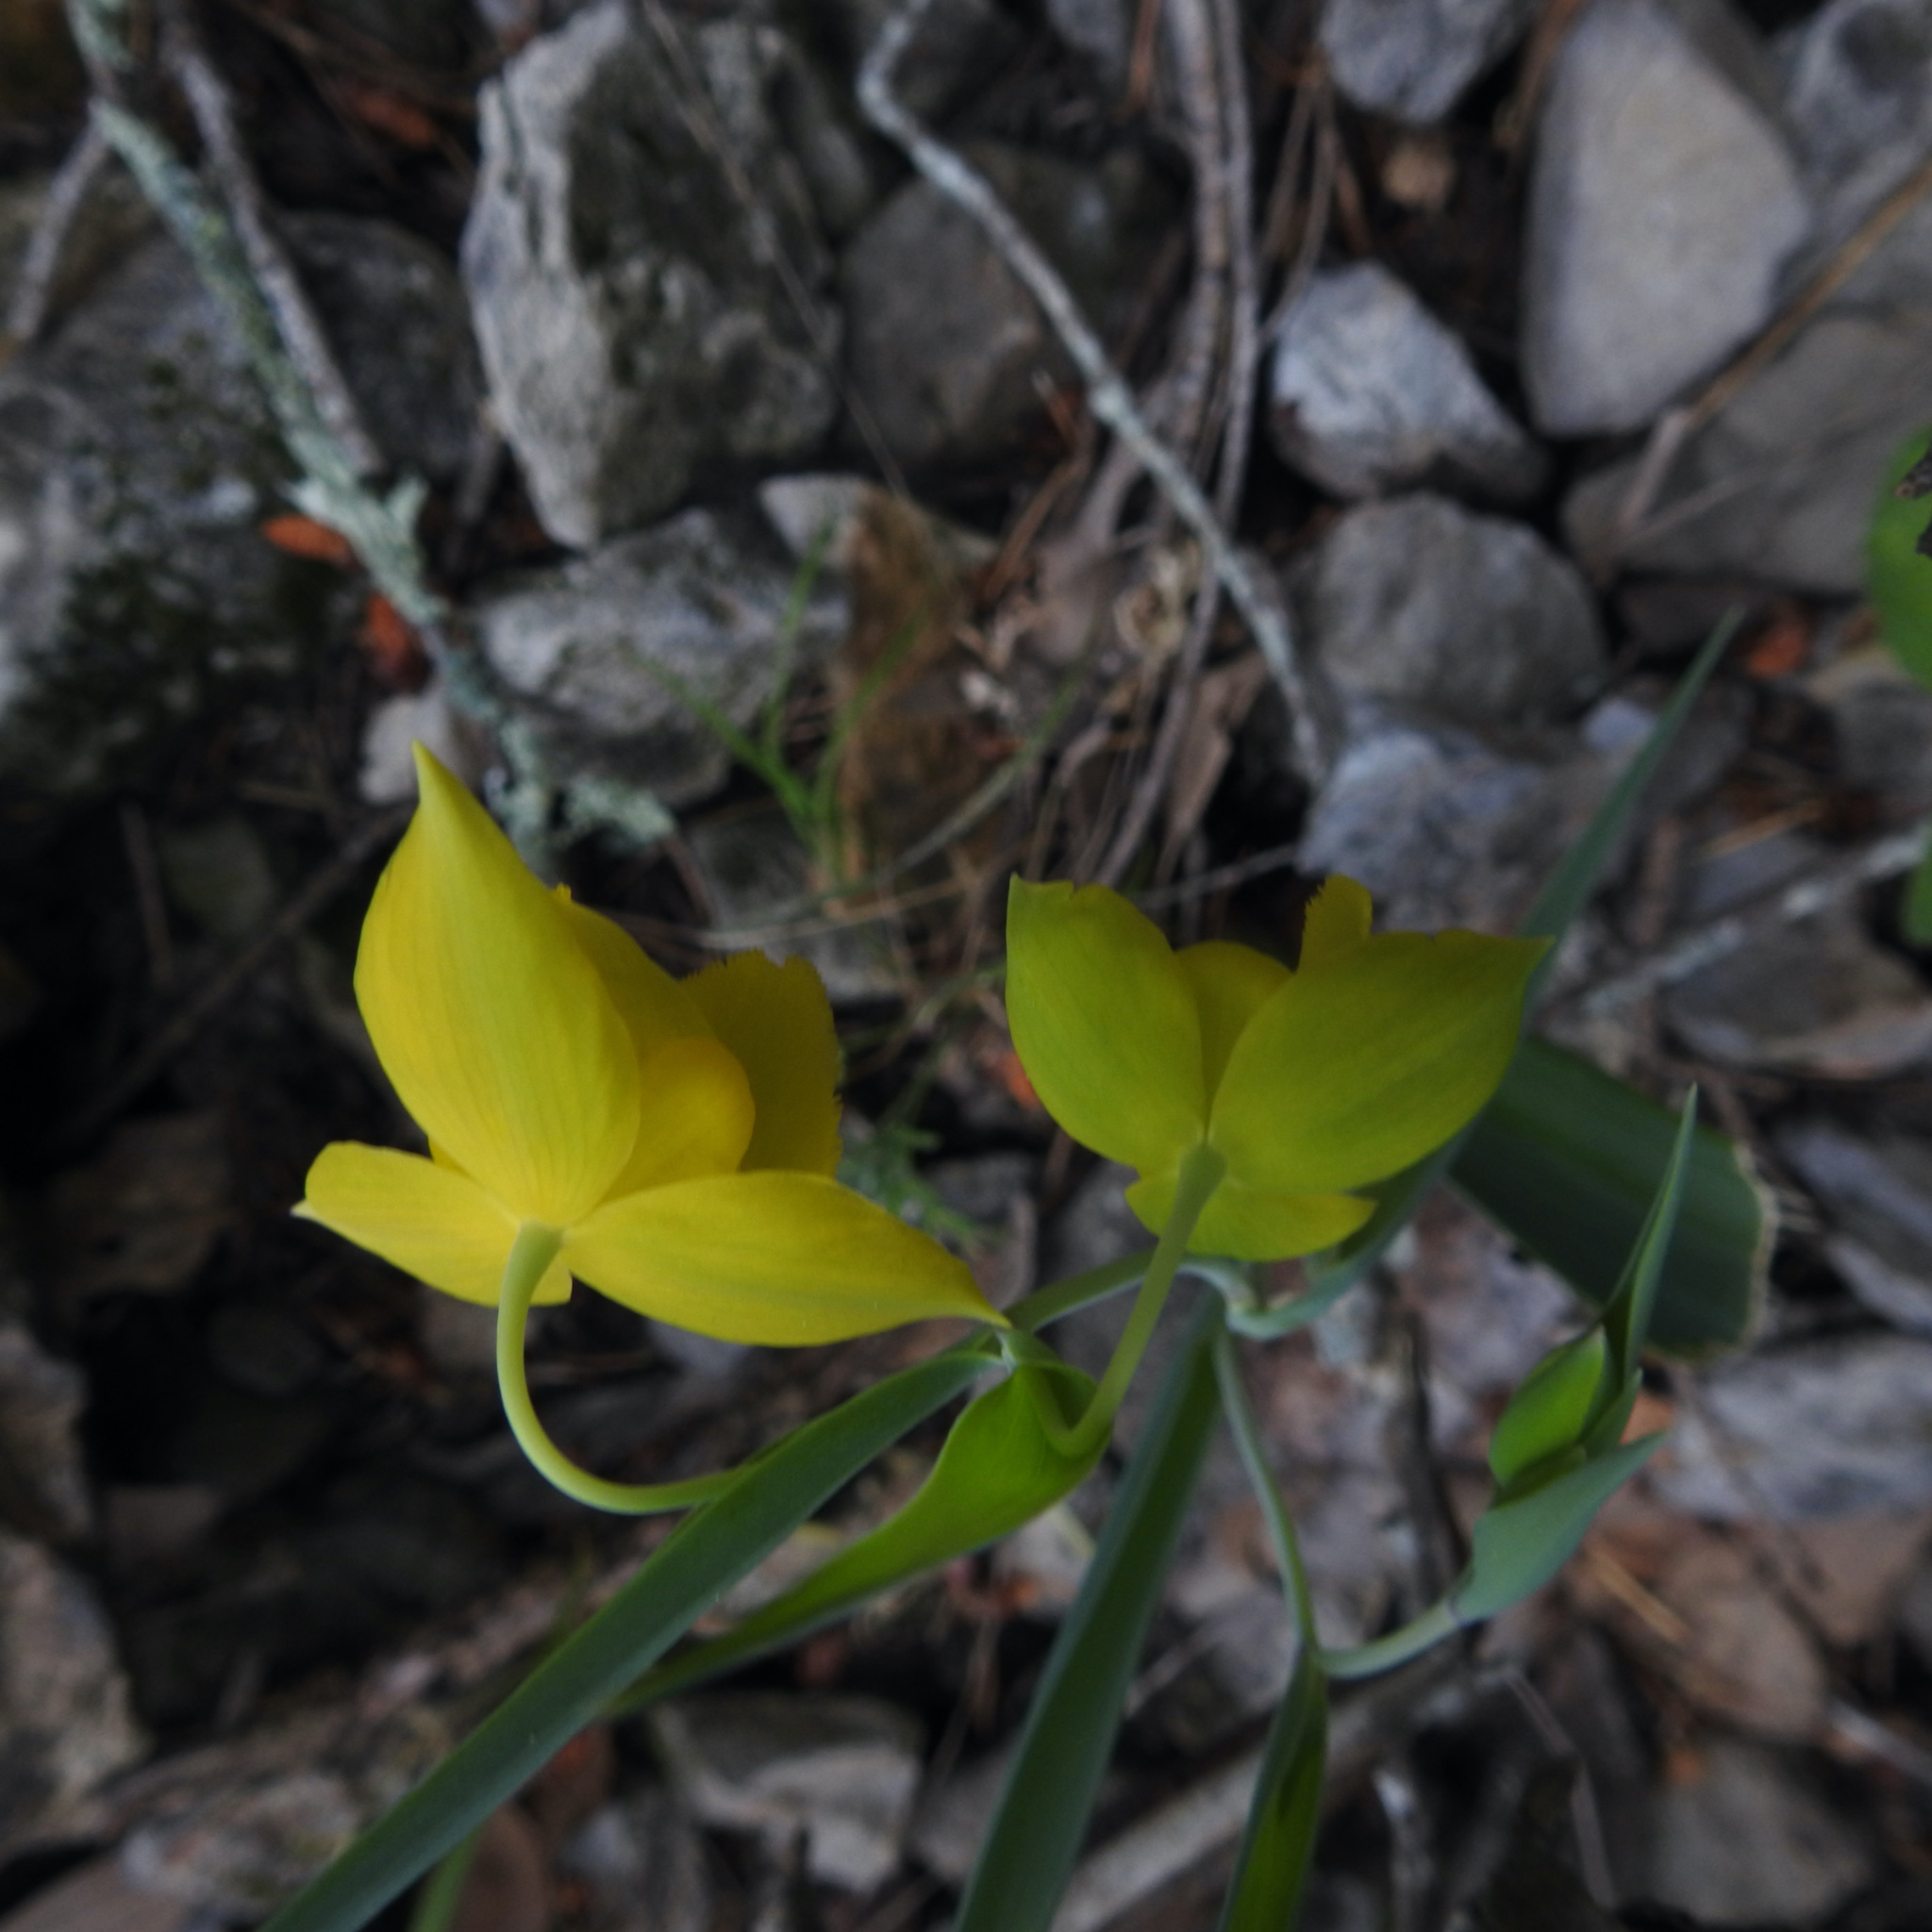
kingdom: Plantae
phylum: Tracheophyta
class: Liliopsida
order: Liliales
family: Liliaceae
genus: Calochortus
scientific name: Calochortus amabilis
